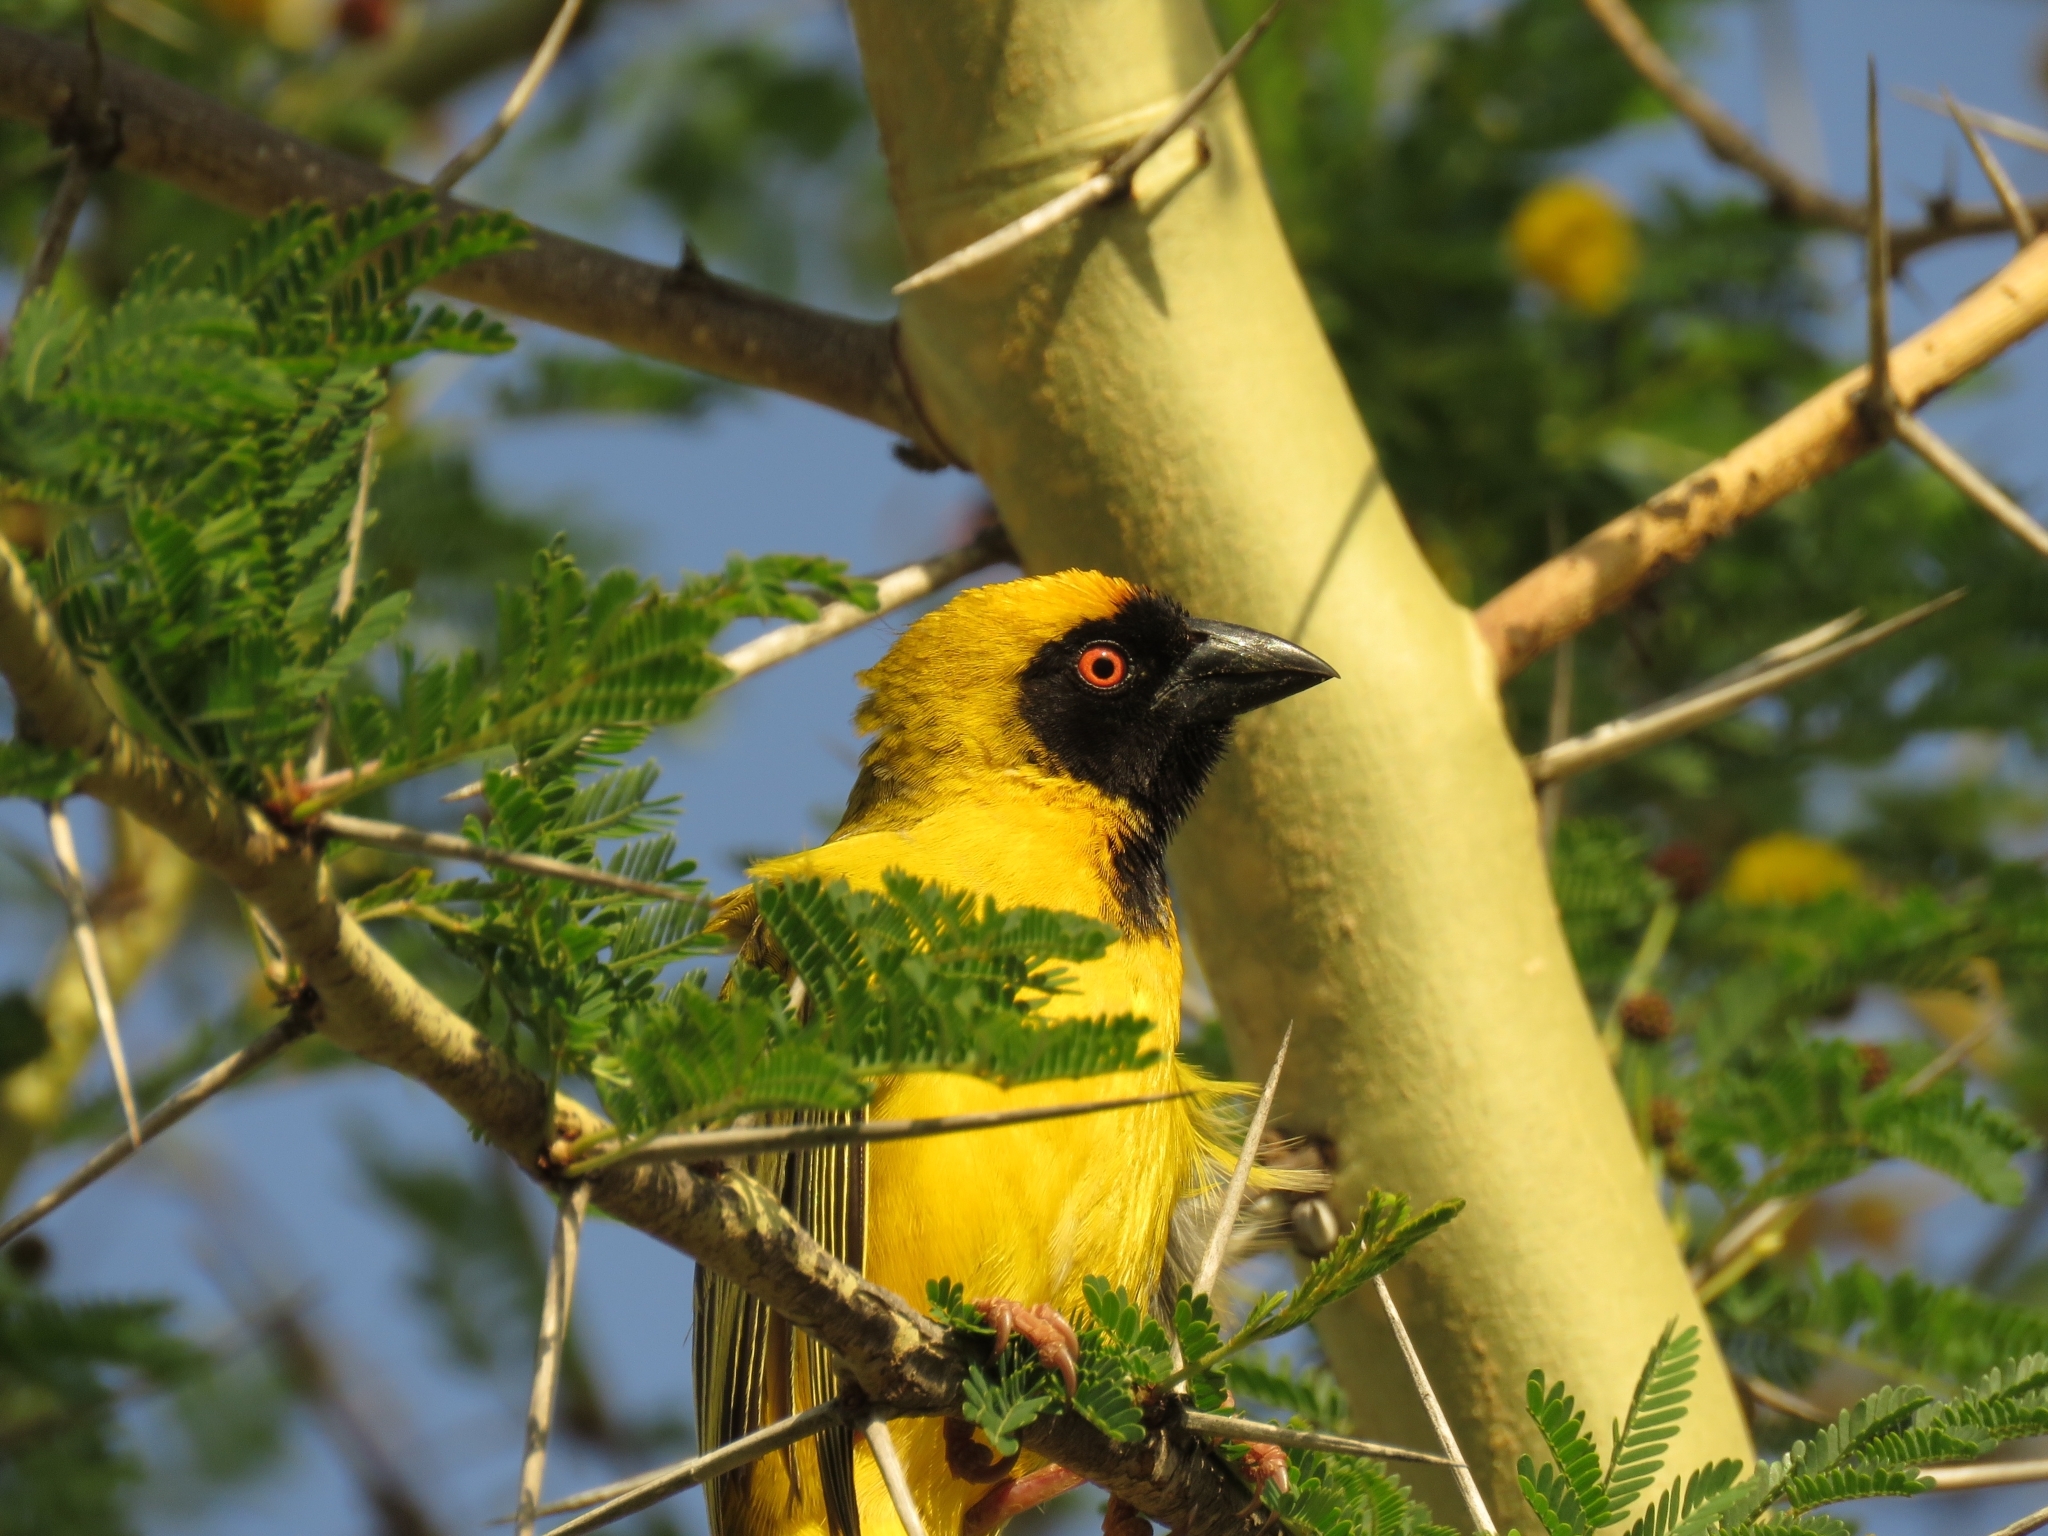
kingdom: Animalia
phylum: Chordata
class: Aves
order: Passeriformes
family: Ploceidae
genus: Ploceus
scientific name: Ploceus velatus
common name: Southern masked weaver
